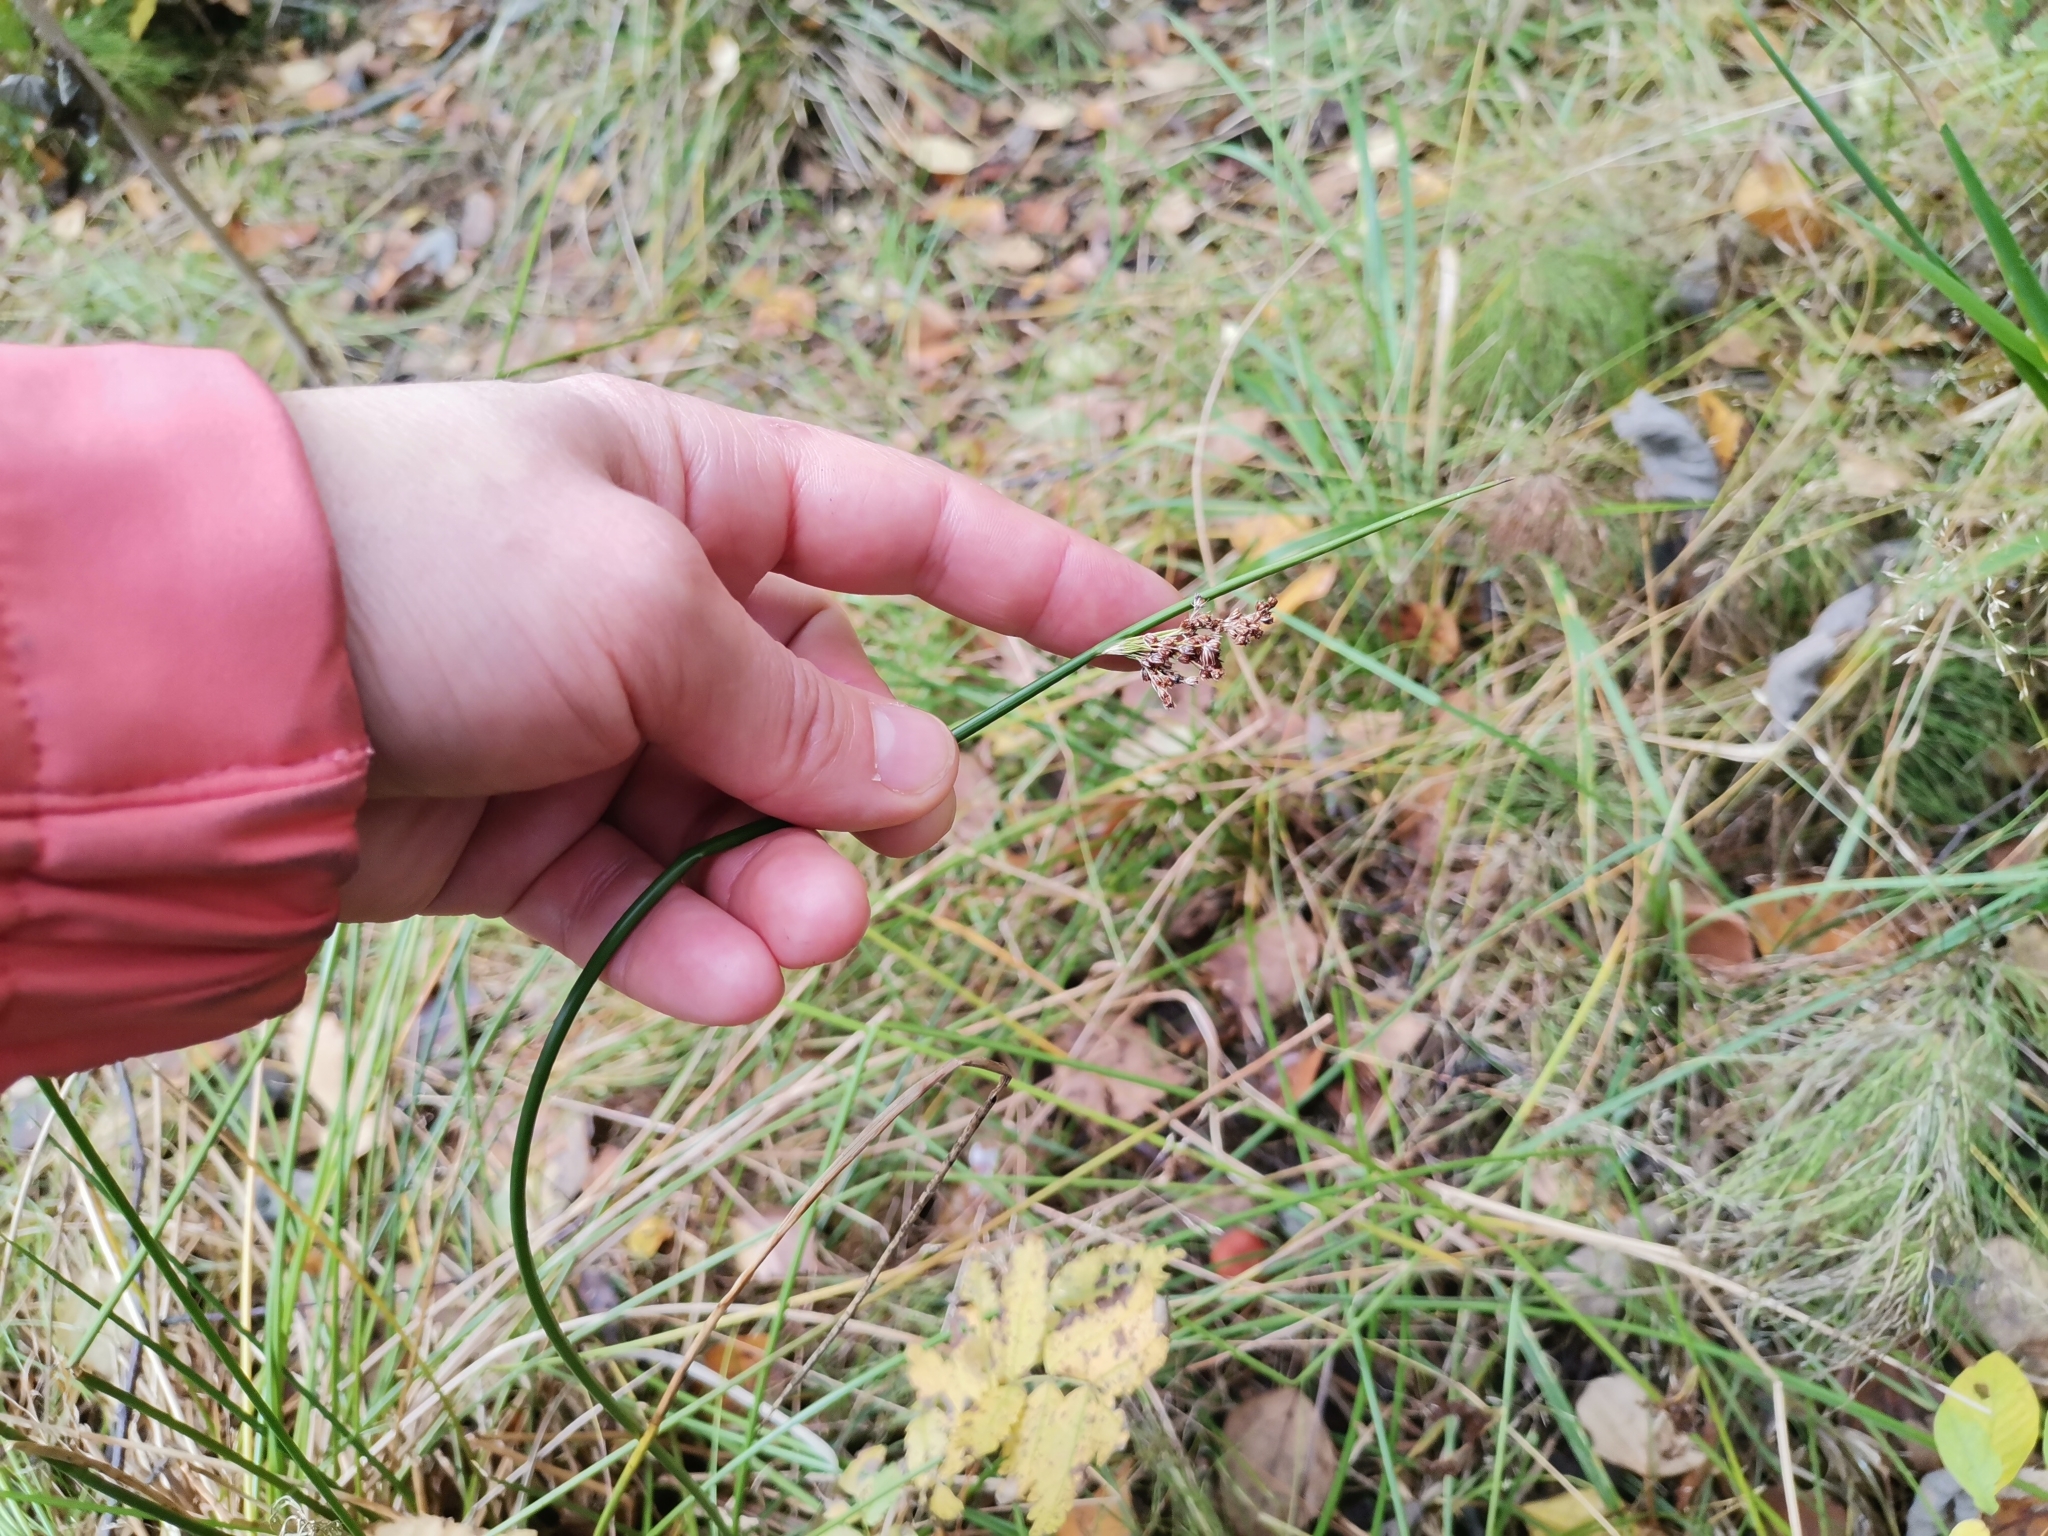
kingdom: Plantae
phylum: Tracheophyta
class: Liliopsida
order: Poales
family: Juncaceae
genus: Juncus
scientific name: Juncus effusus
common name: Soft rush
